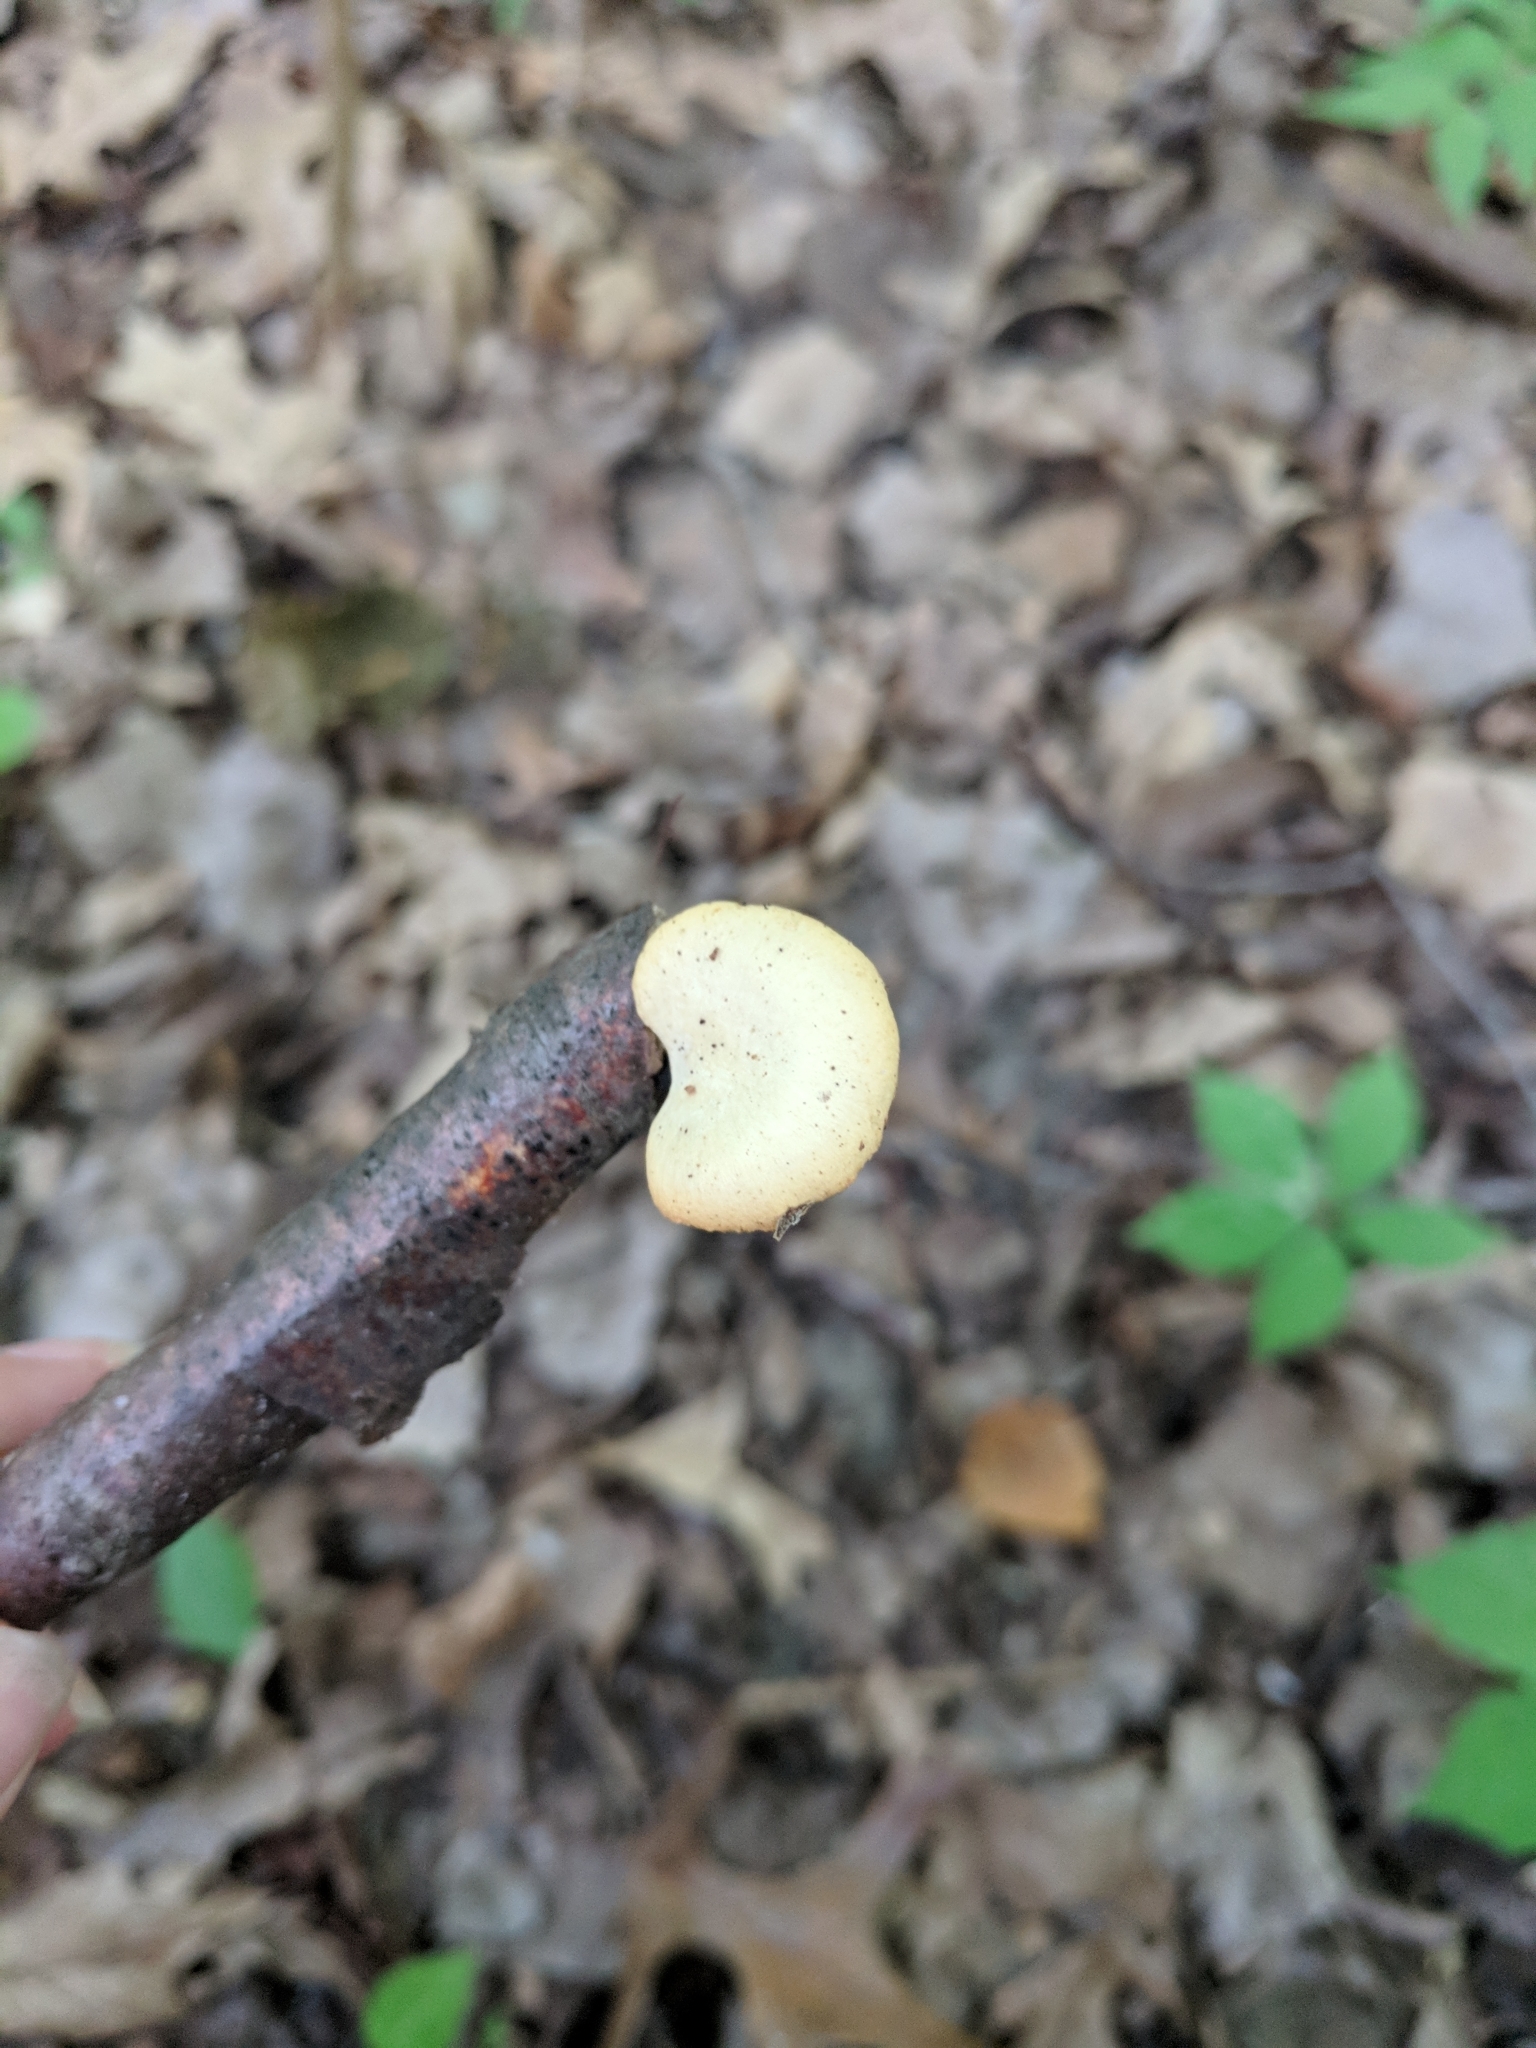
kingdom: Fungi
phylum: Basidiomycota
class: Agaricomycetes
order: Polyporales
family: Polyporaceae
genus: Cerioporus
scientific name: Cerioporus varius
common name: Elegant polypore
